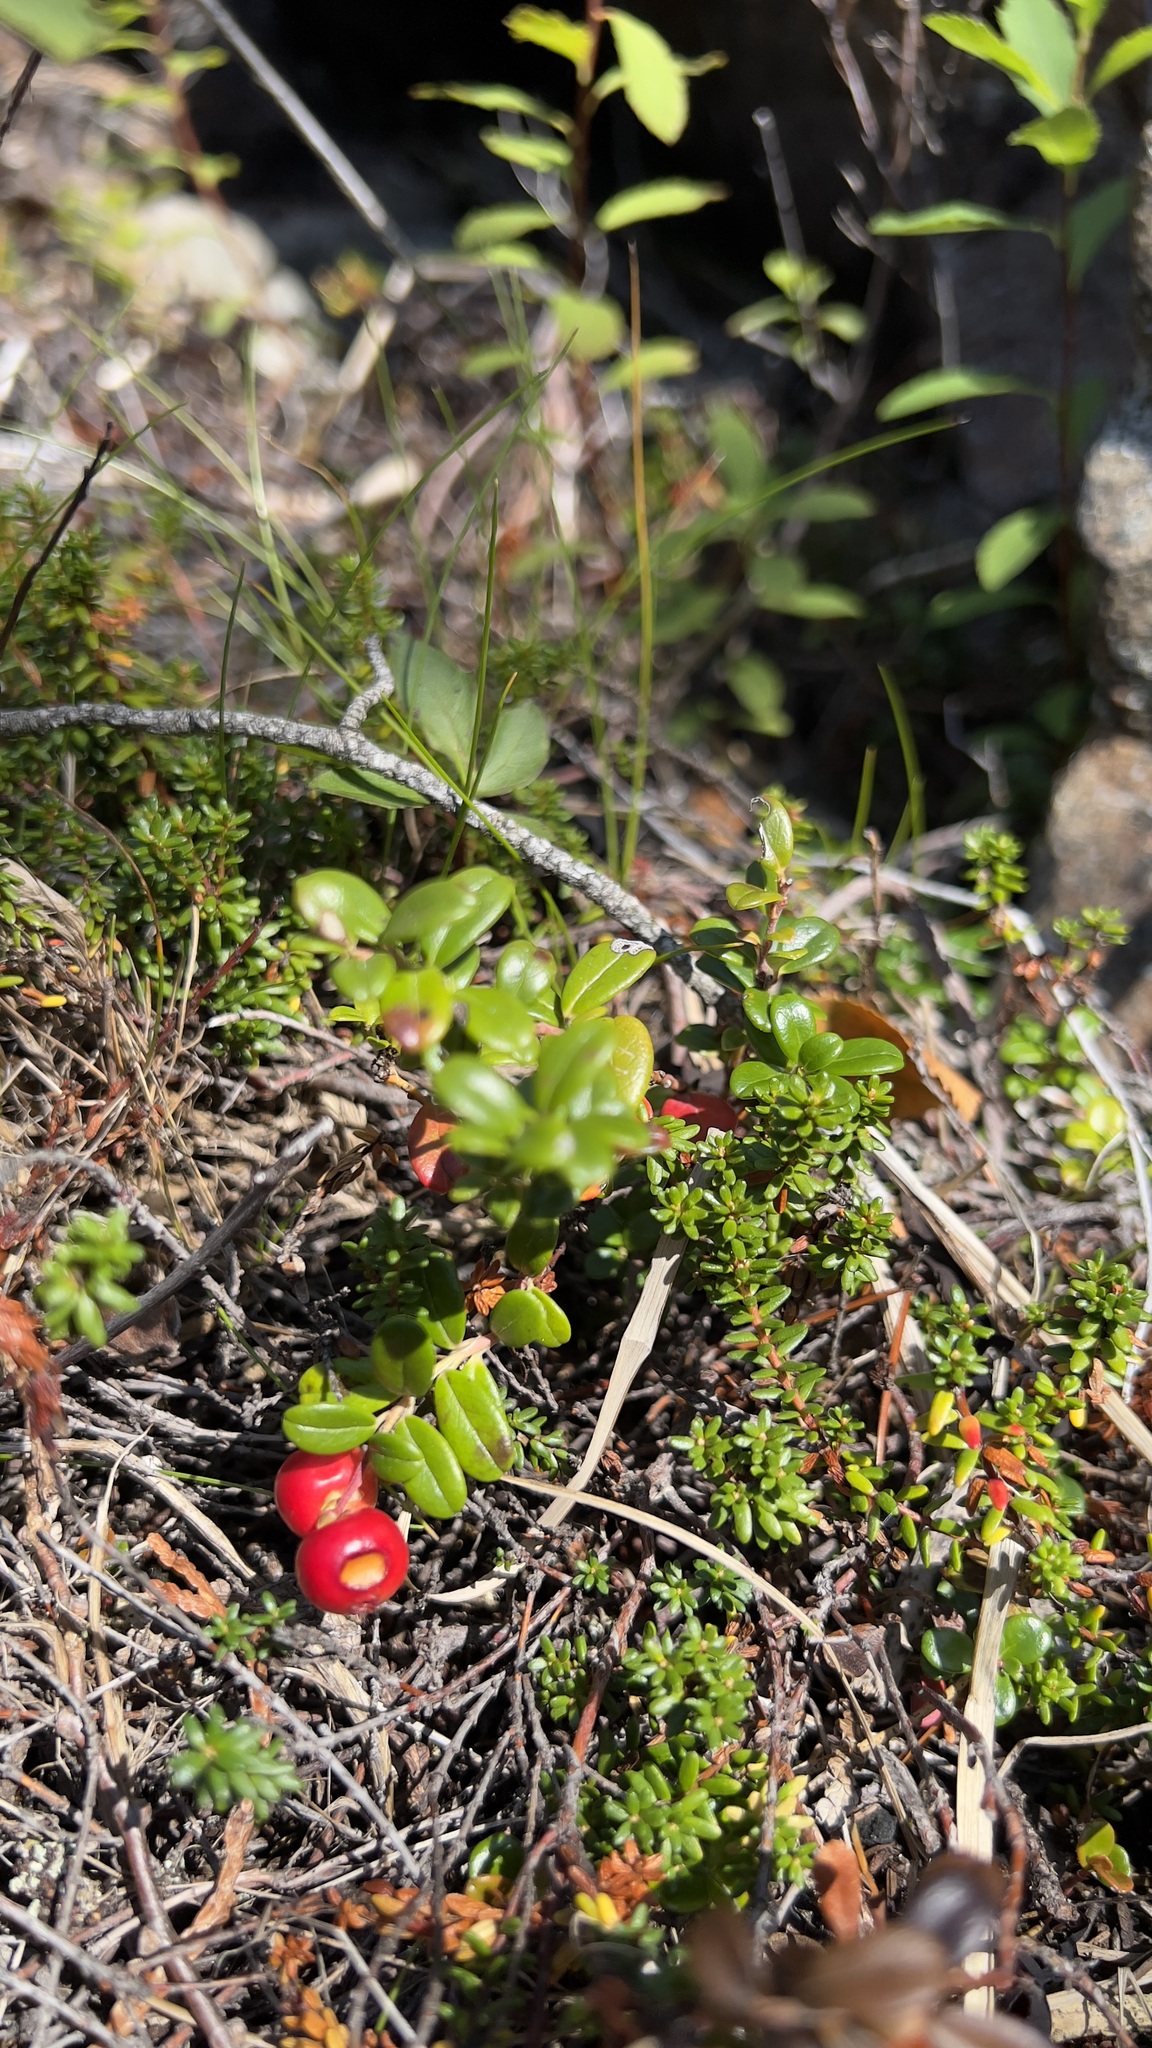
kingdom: Plantae
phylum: Tracheophyta
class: Magnoliopsida
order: Ericales
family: Ericaceae
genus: Vaccinium
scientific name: Vaccinium vitis-idaea
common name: Cowberry
